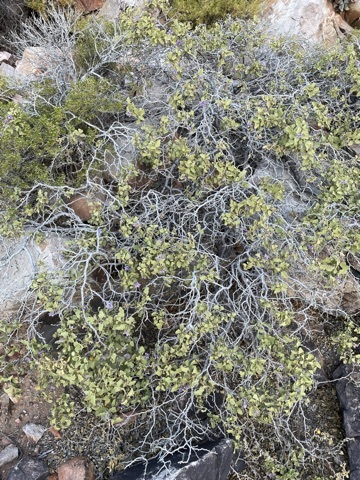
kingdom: Plantae
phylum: Tracheophyta
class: Magnoliopsida
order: Solanales
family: Solanaceae
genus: Solanum
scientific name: Solanum tomentosum
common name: Wild aubergine
